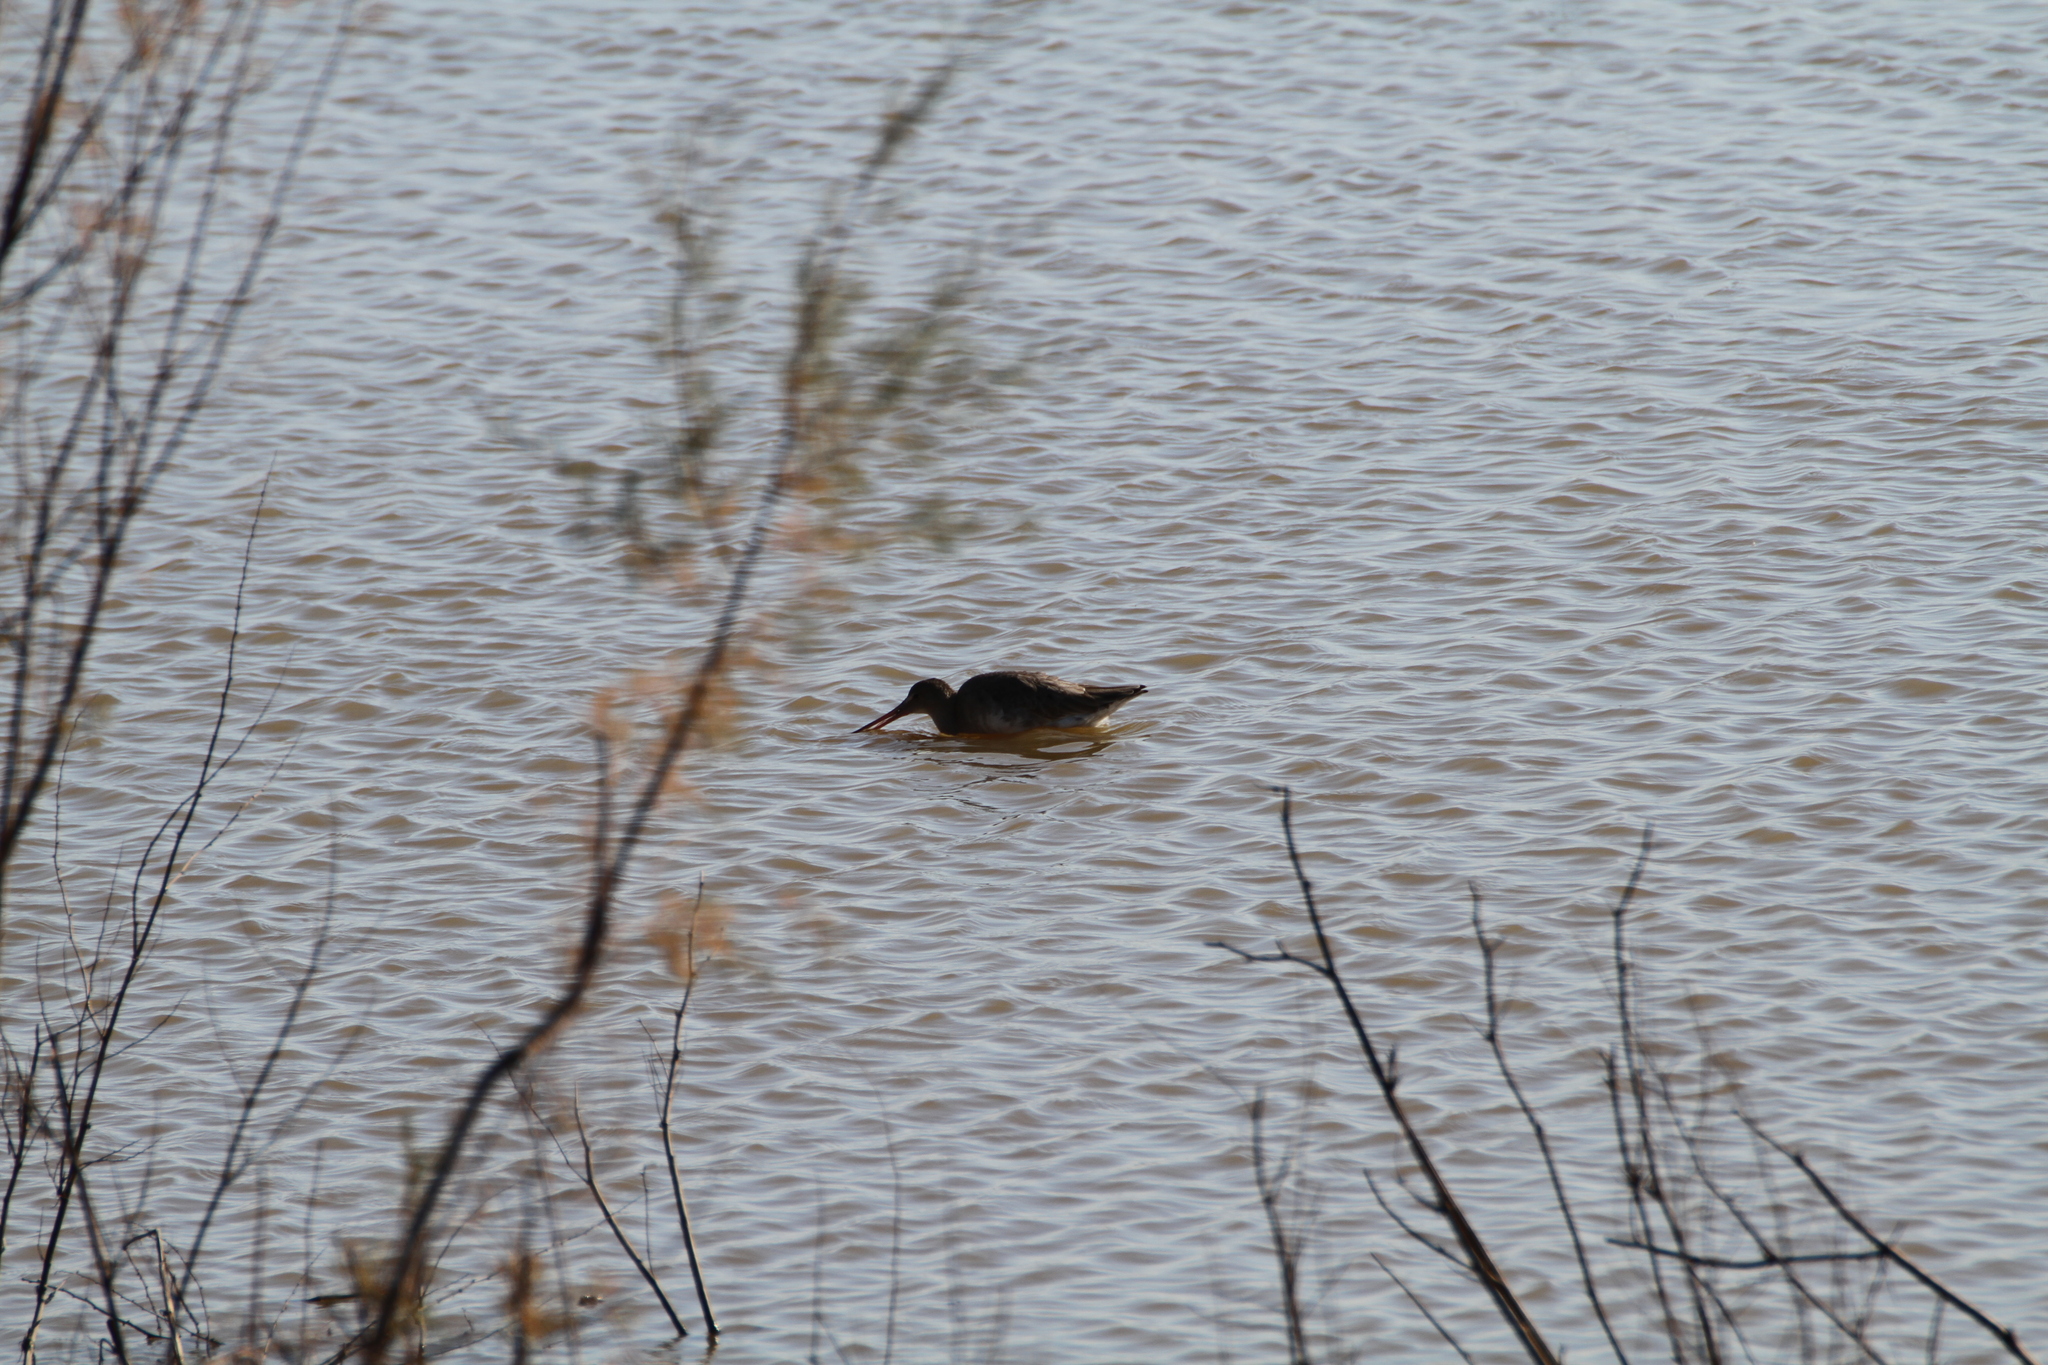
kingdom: Animalia
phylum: Chordata
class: Aves
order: Charadriiformes
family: Scolopacidae
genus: Limosa
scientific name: Limosa limosa
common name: Black-tailed godwit
